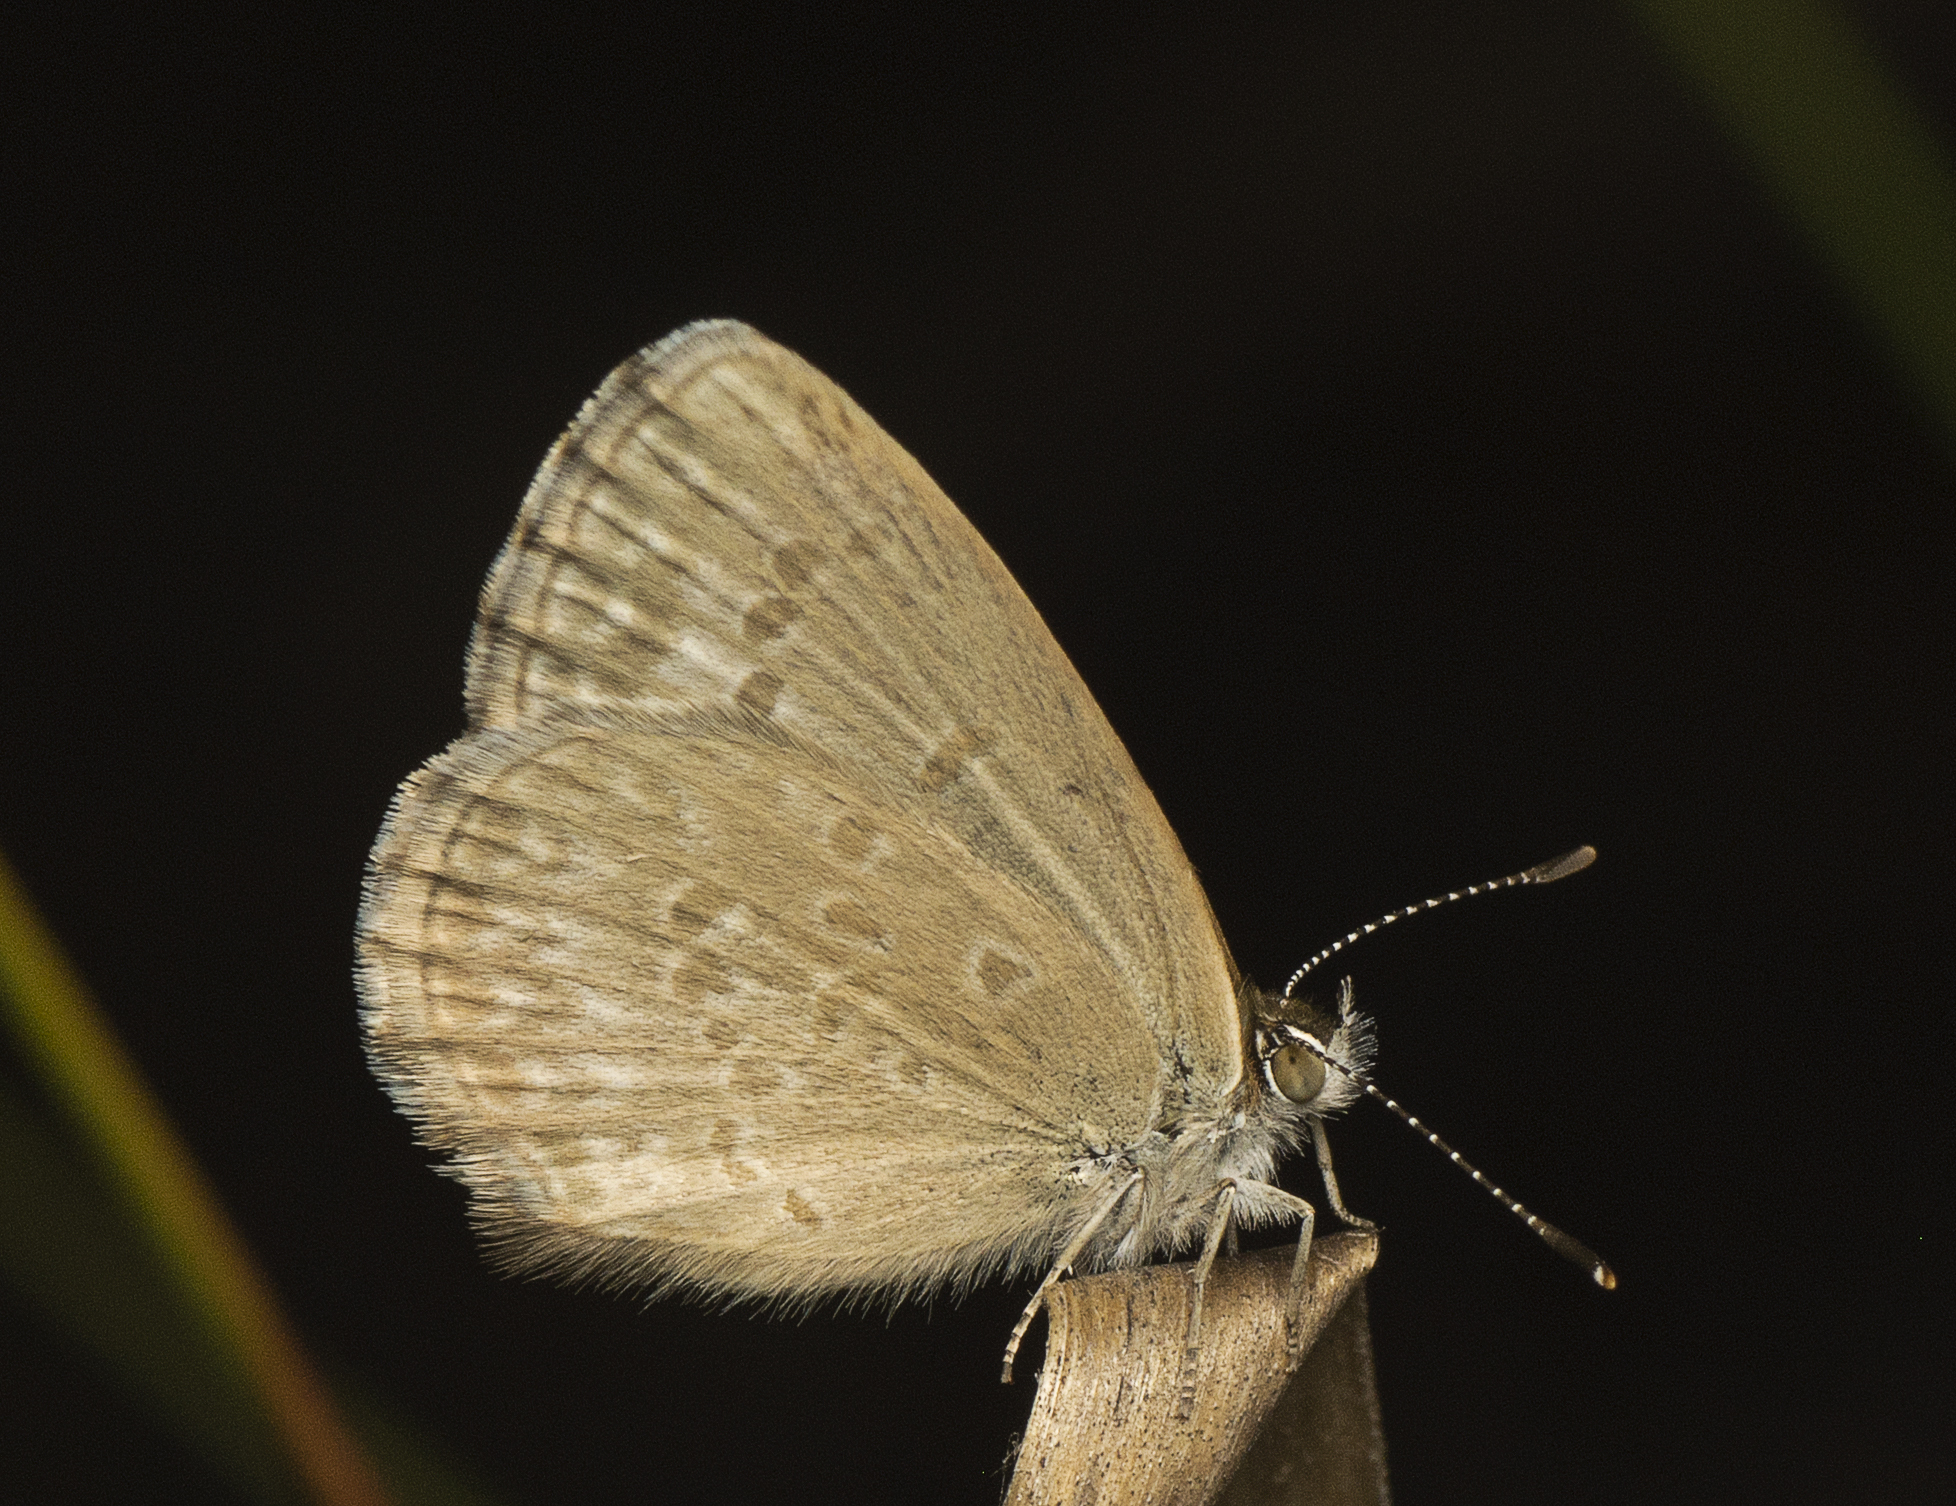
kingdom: Animalia
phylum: Arthropoda
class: Insecta
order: Lepidoptera
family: Lycaenidae
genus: Zizina
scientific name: Zizina labradus
